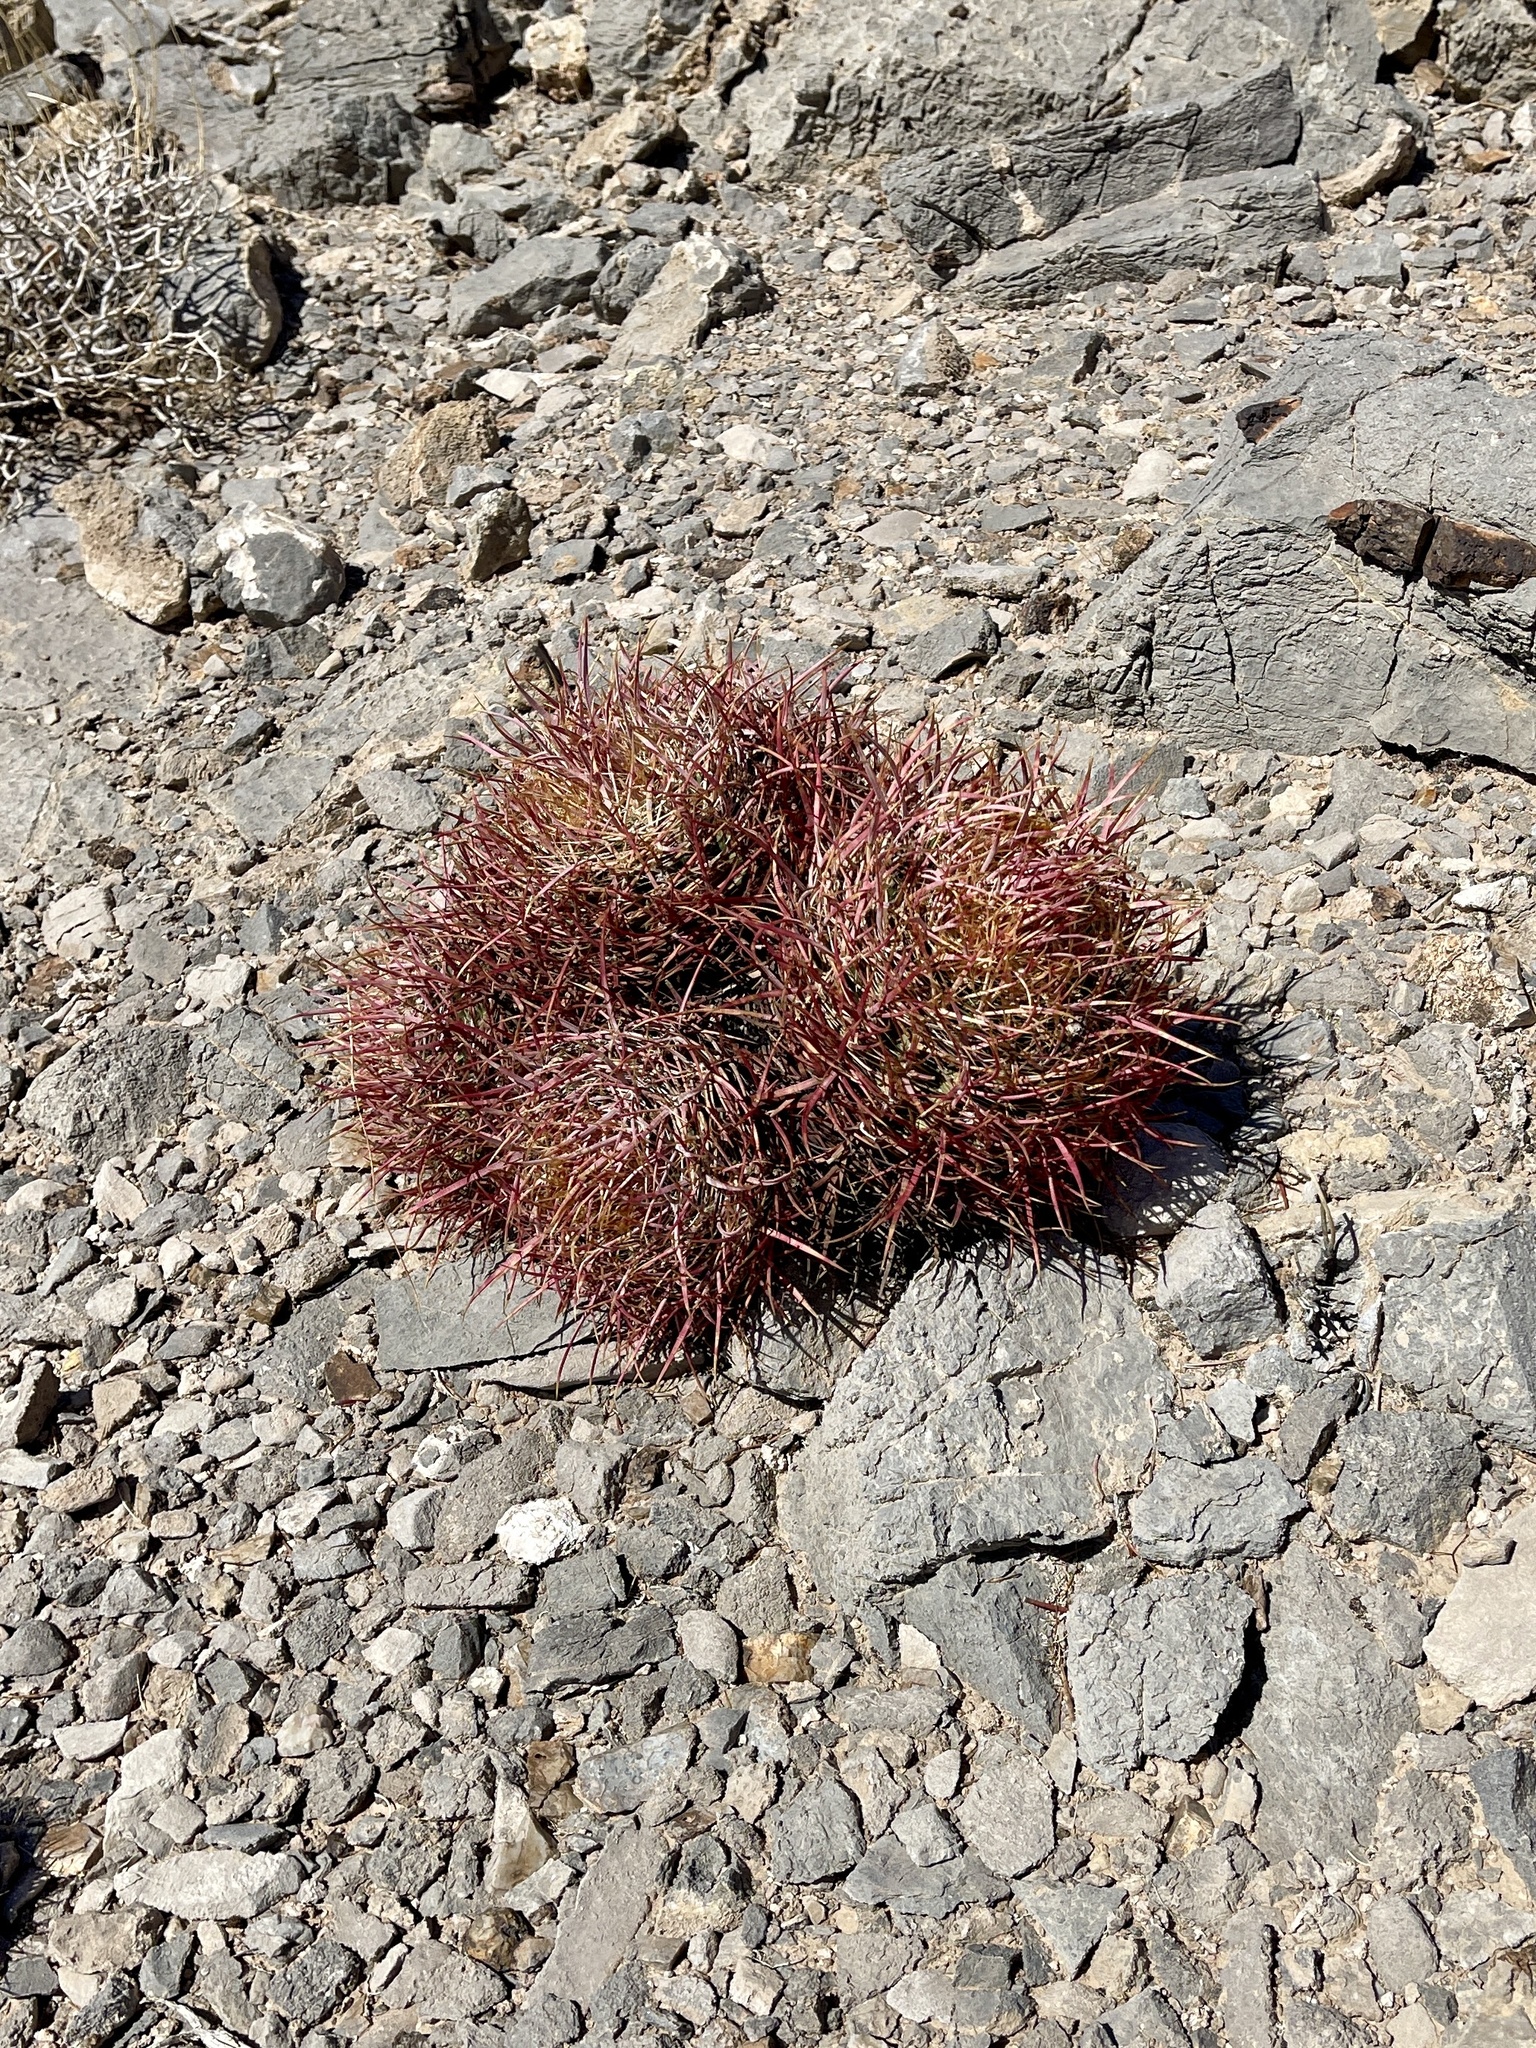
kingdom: Plantae
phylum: Tracheophyta
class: Magnoliopsida
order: Caryophyllales
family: Cactaceae
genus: Ferocactus
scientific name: Ferocactus cylindraceus
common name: California barrel cactus
